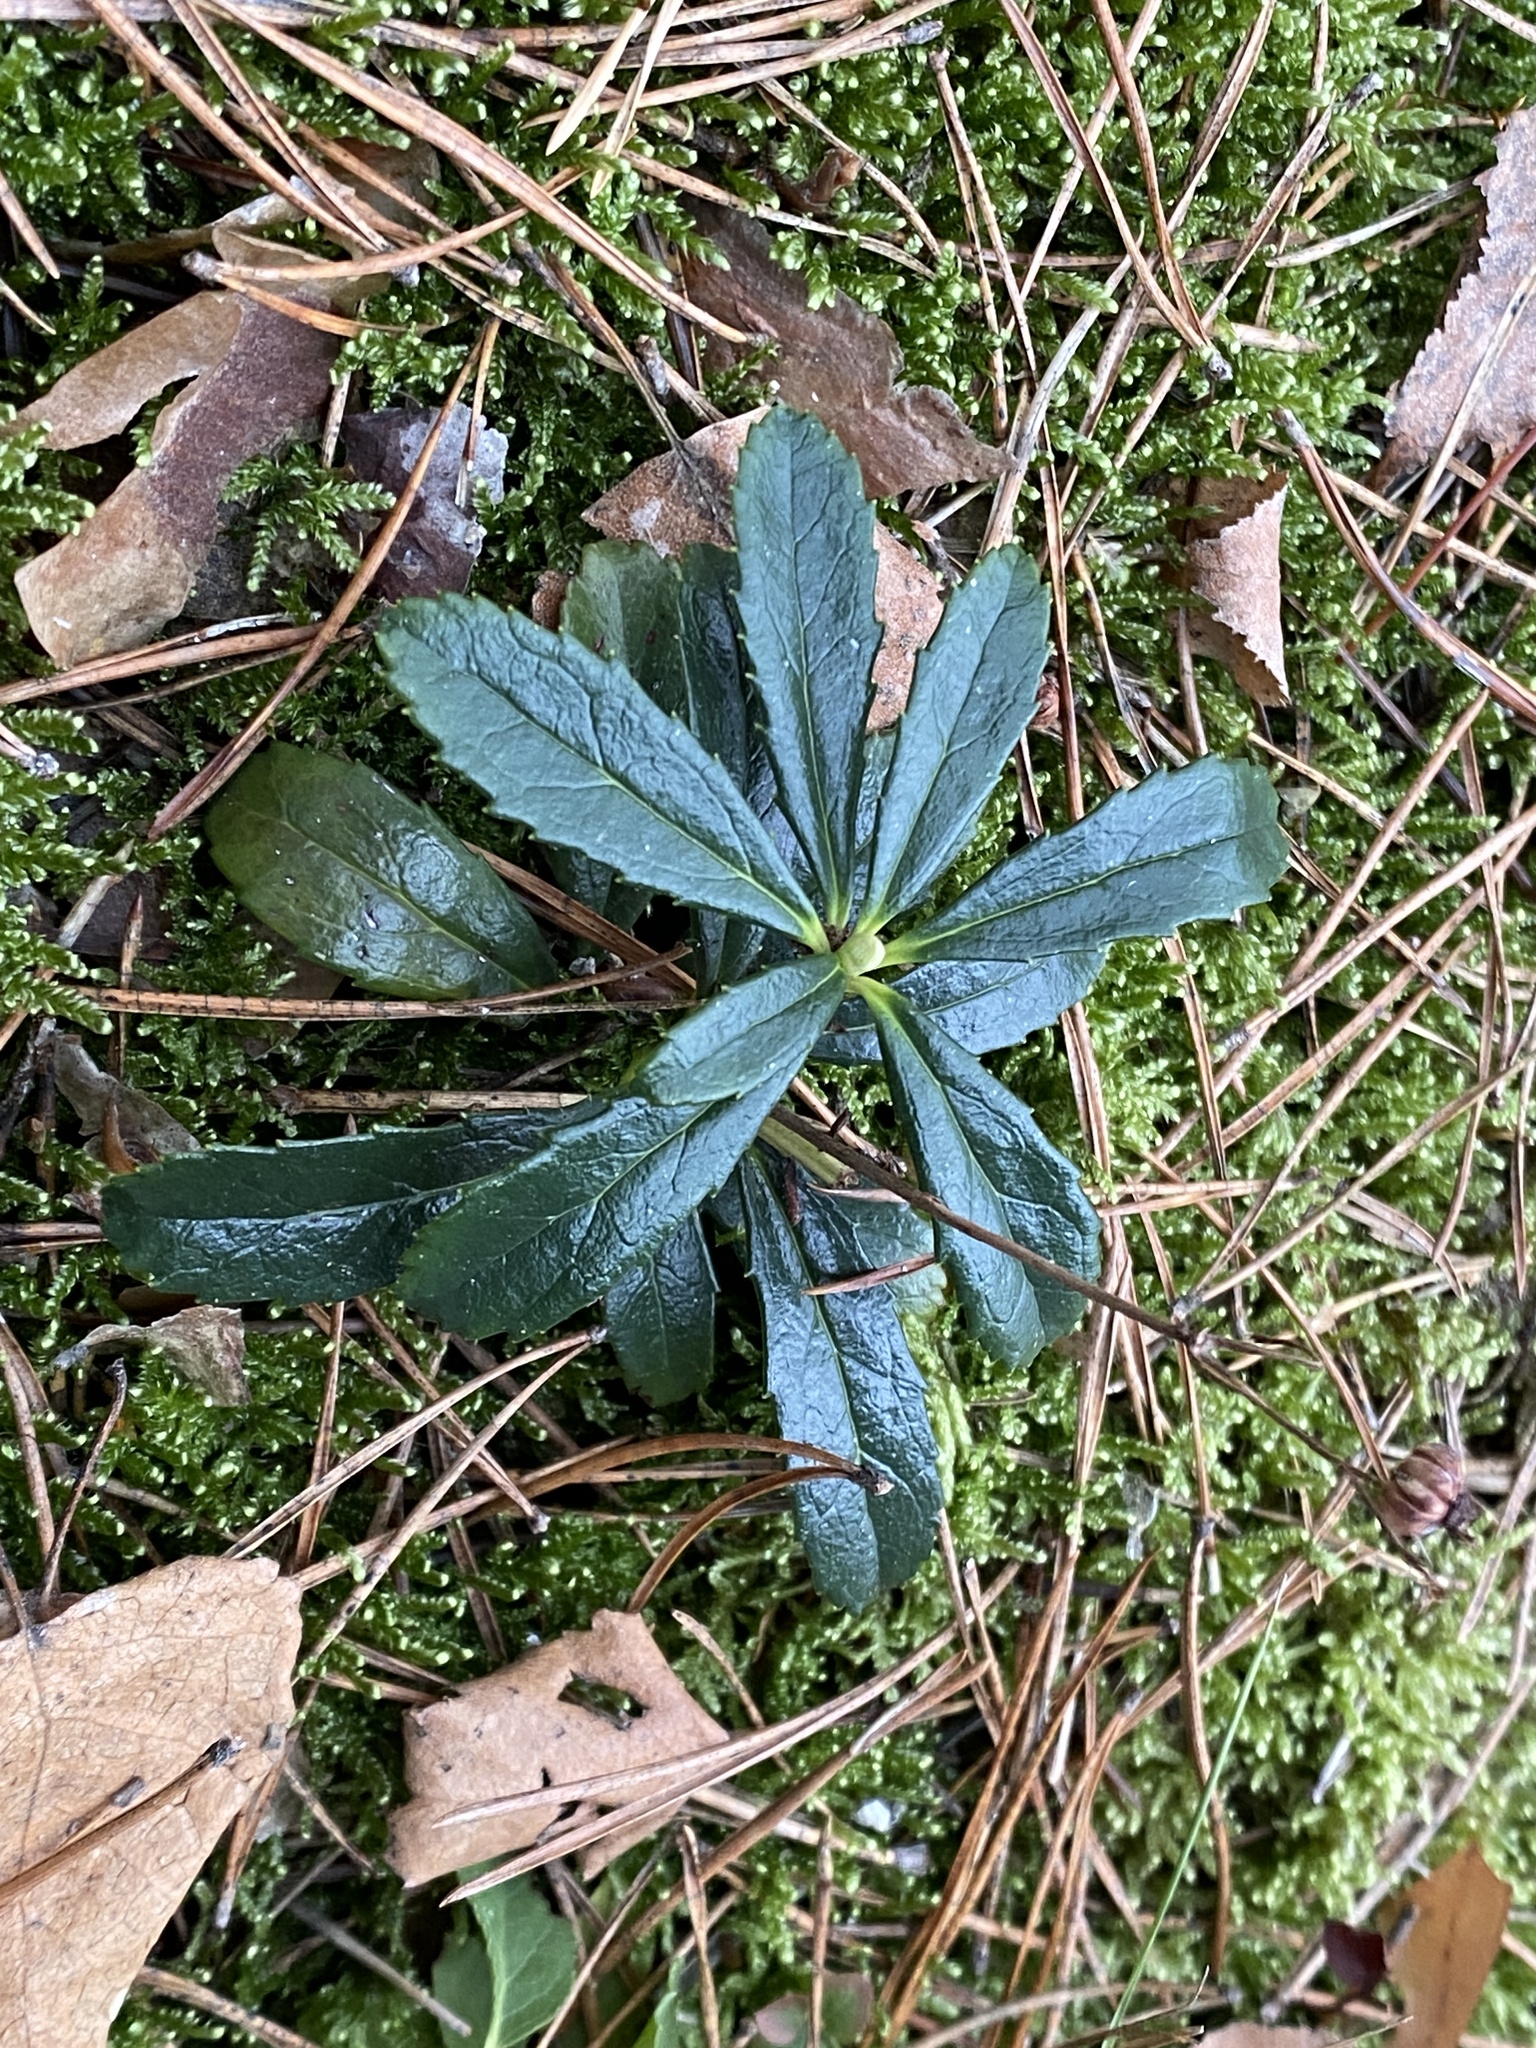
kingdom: Plantae
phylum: Tracheophyta
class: Magnoliopsida
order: Ericales
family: Ericaceae
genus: Chimaphila
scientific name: Chimaphila umbellata
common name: Pipsissewa
